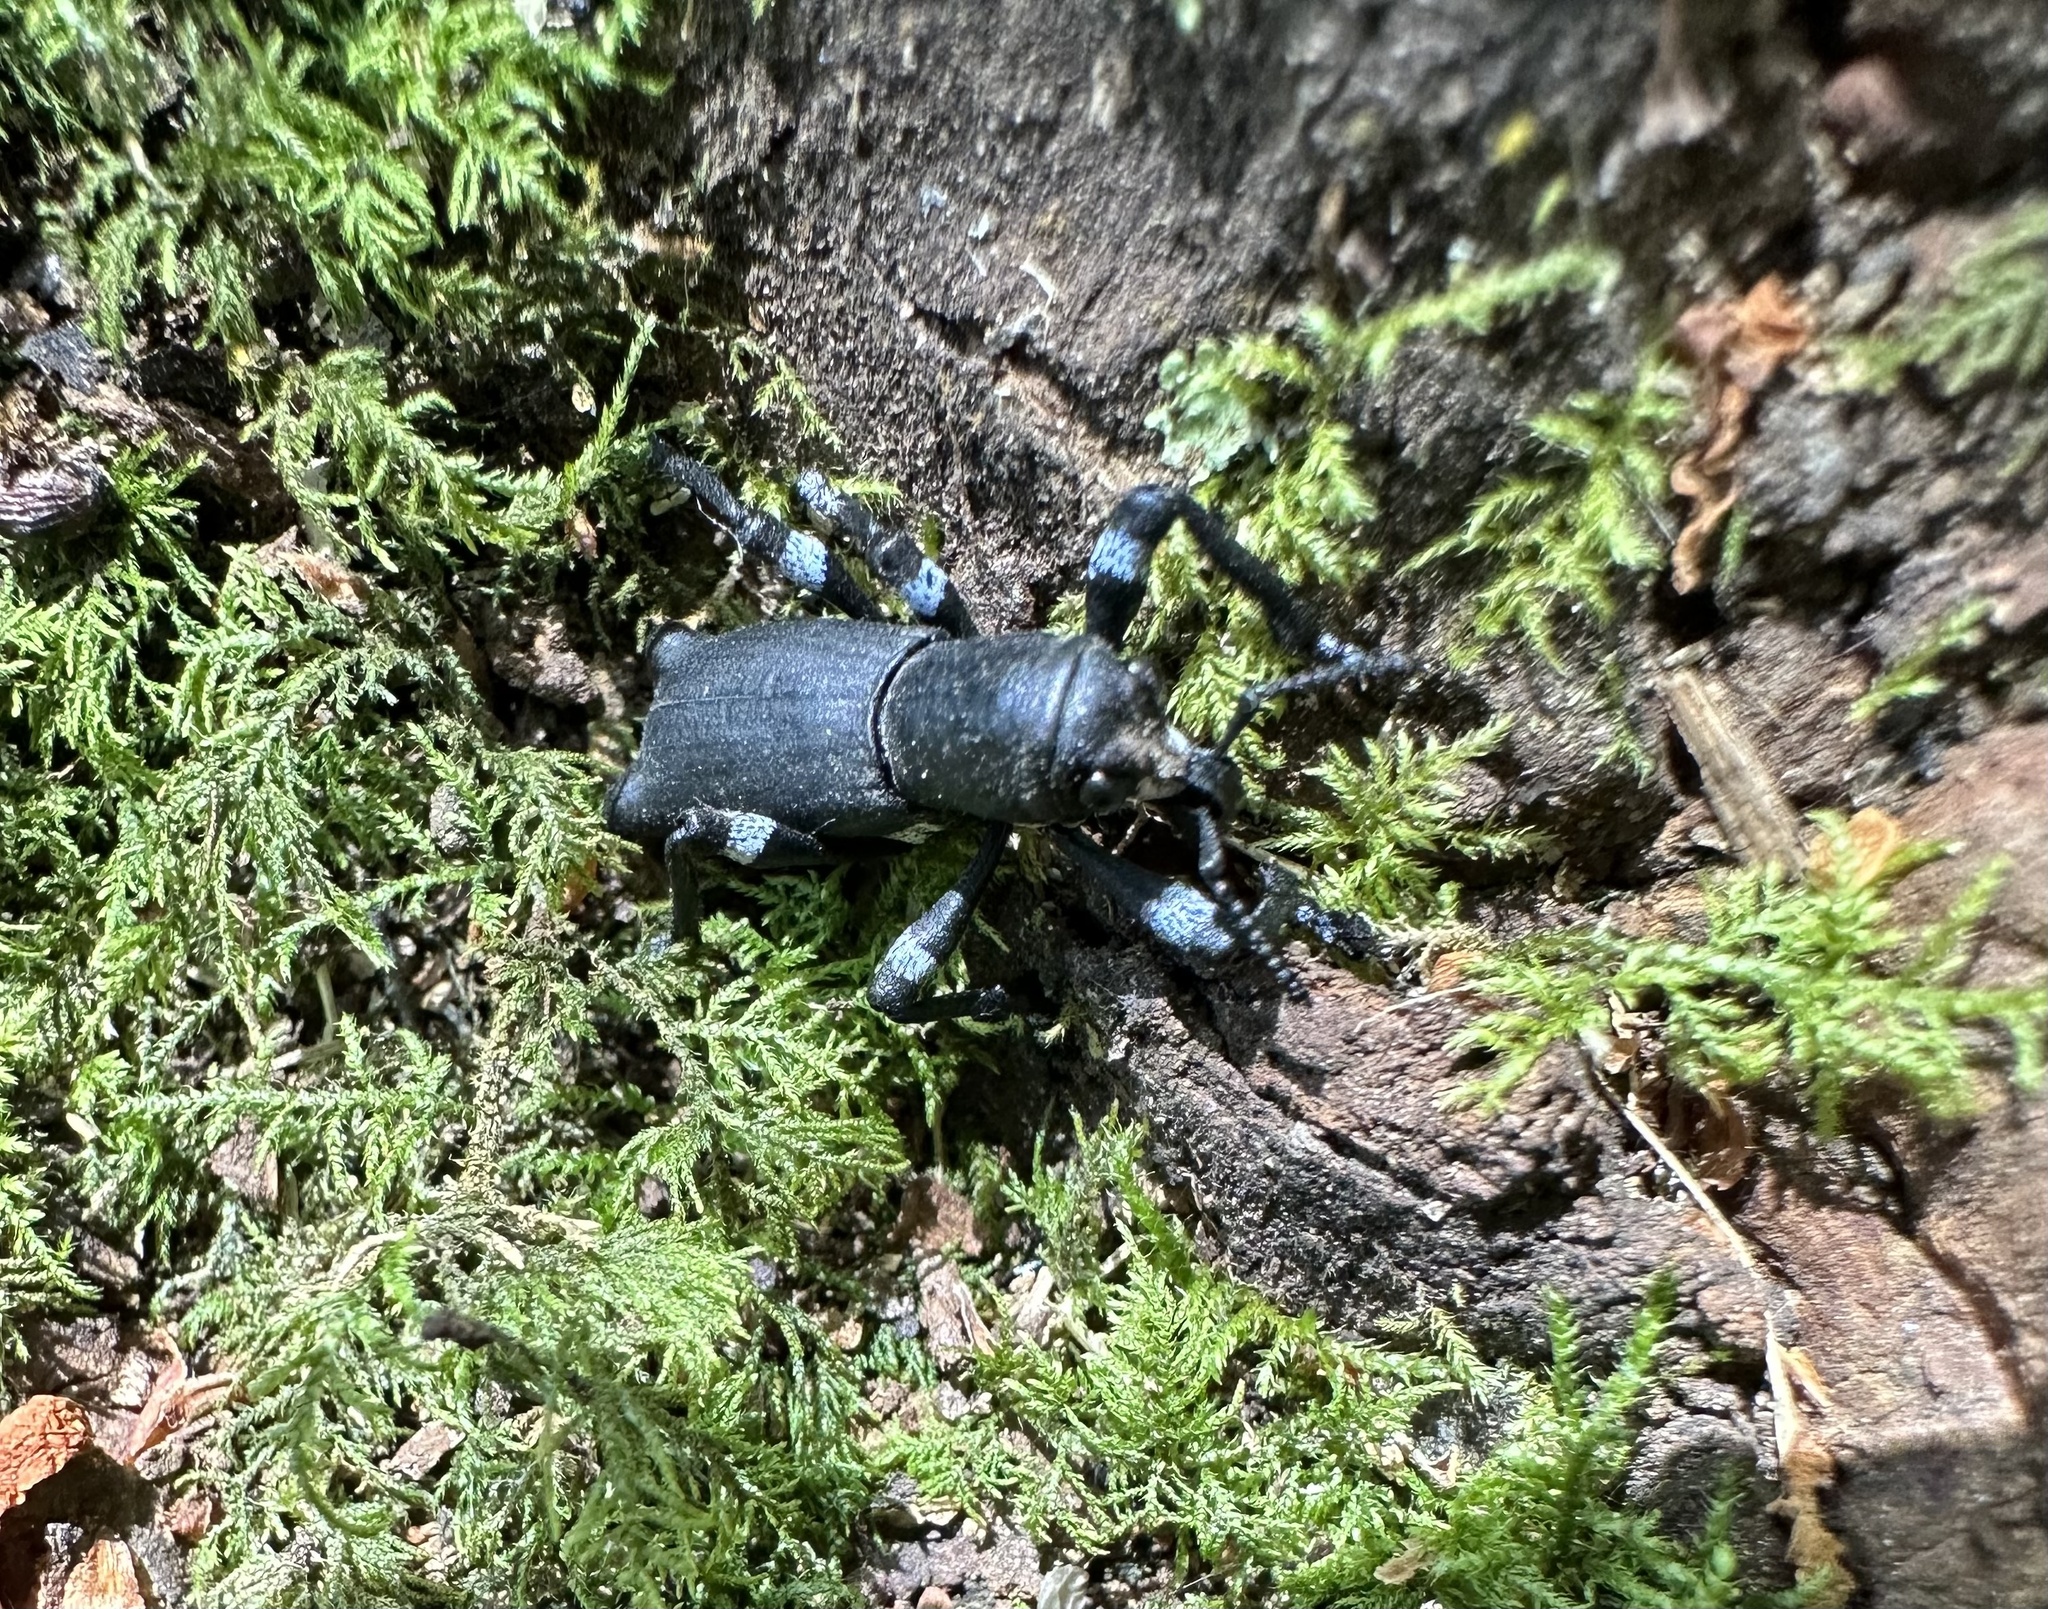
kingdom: Animalia
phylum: Arthropoda
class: Insecta
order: Coleoptera
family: Curculionidae
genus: Aegorhinus
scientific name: Aegorhinus
